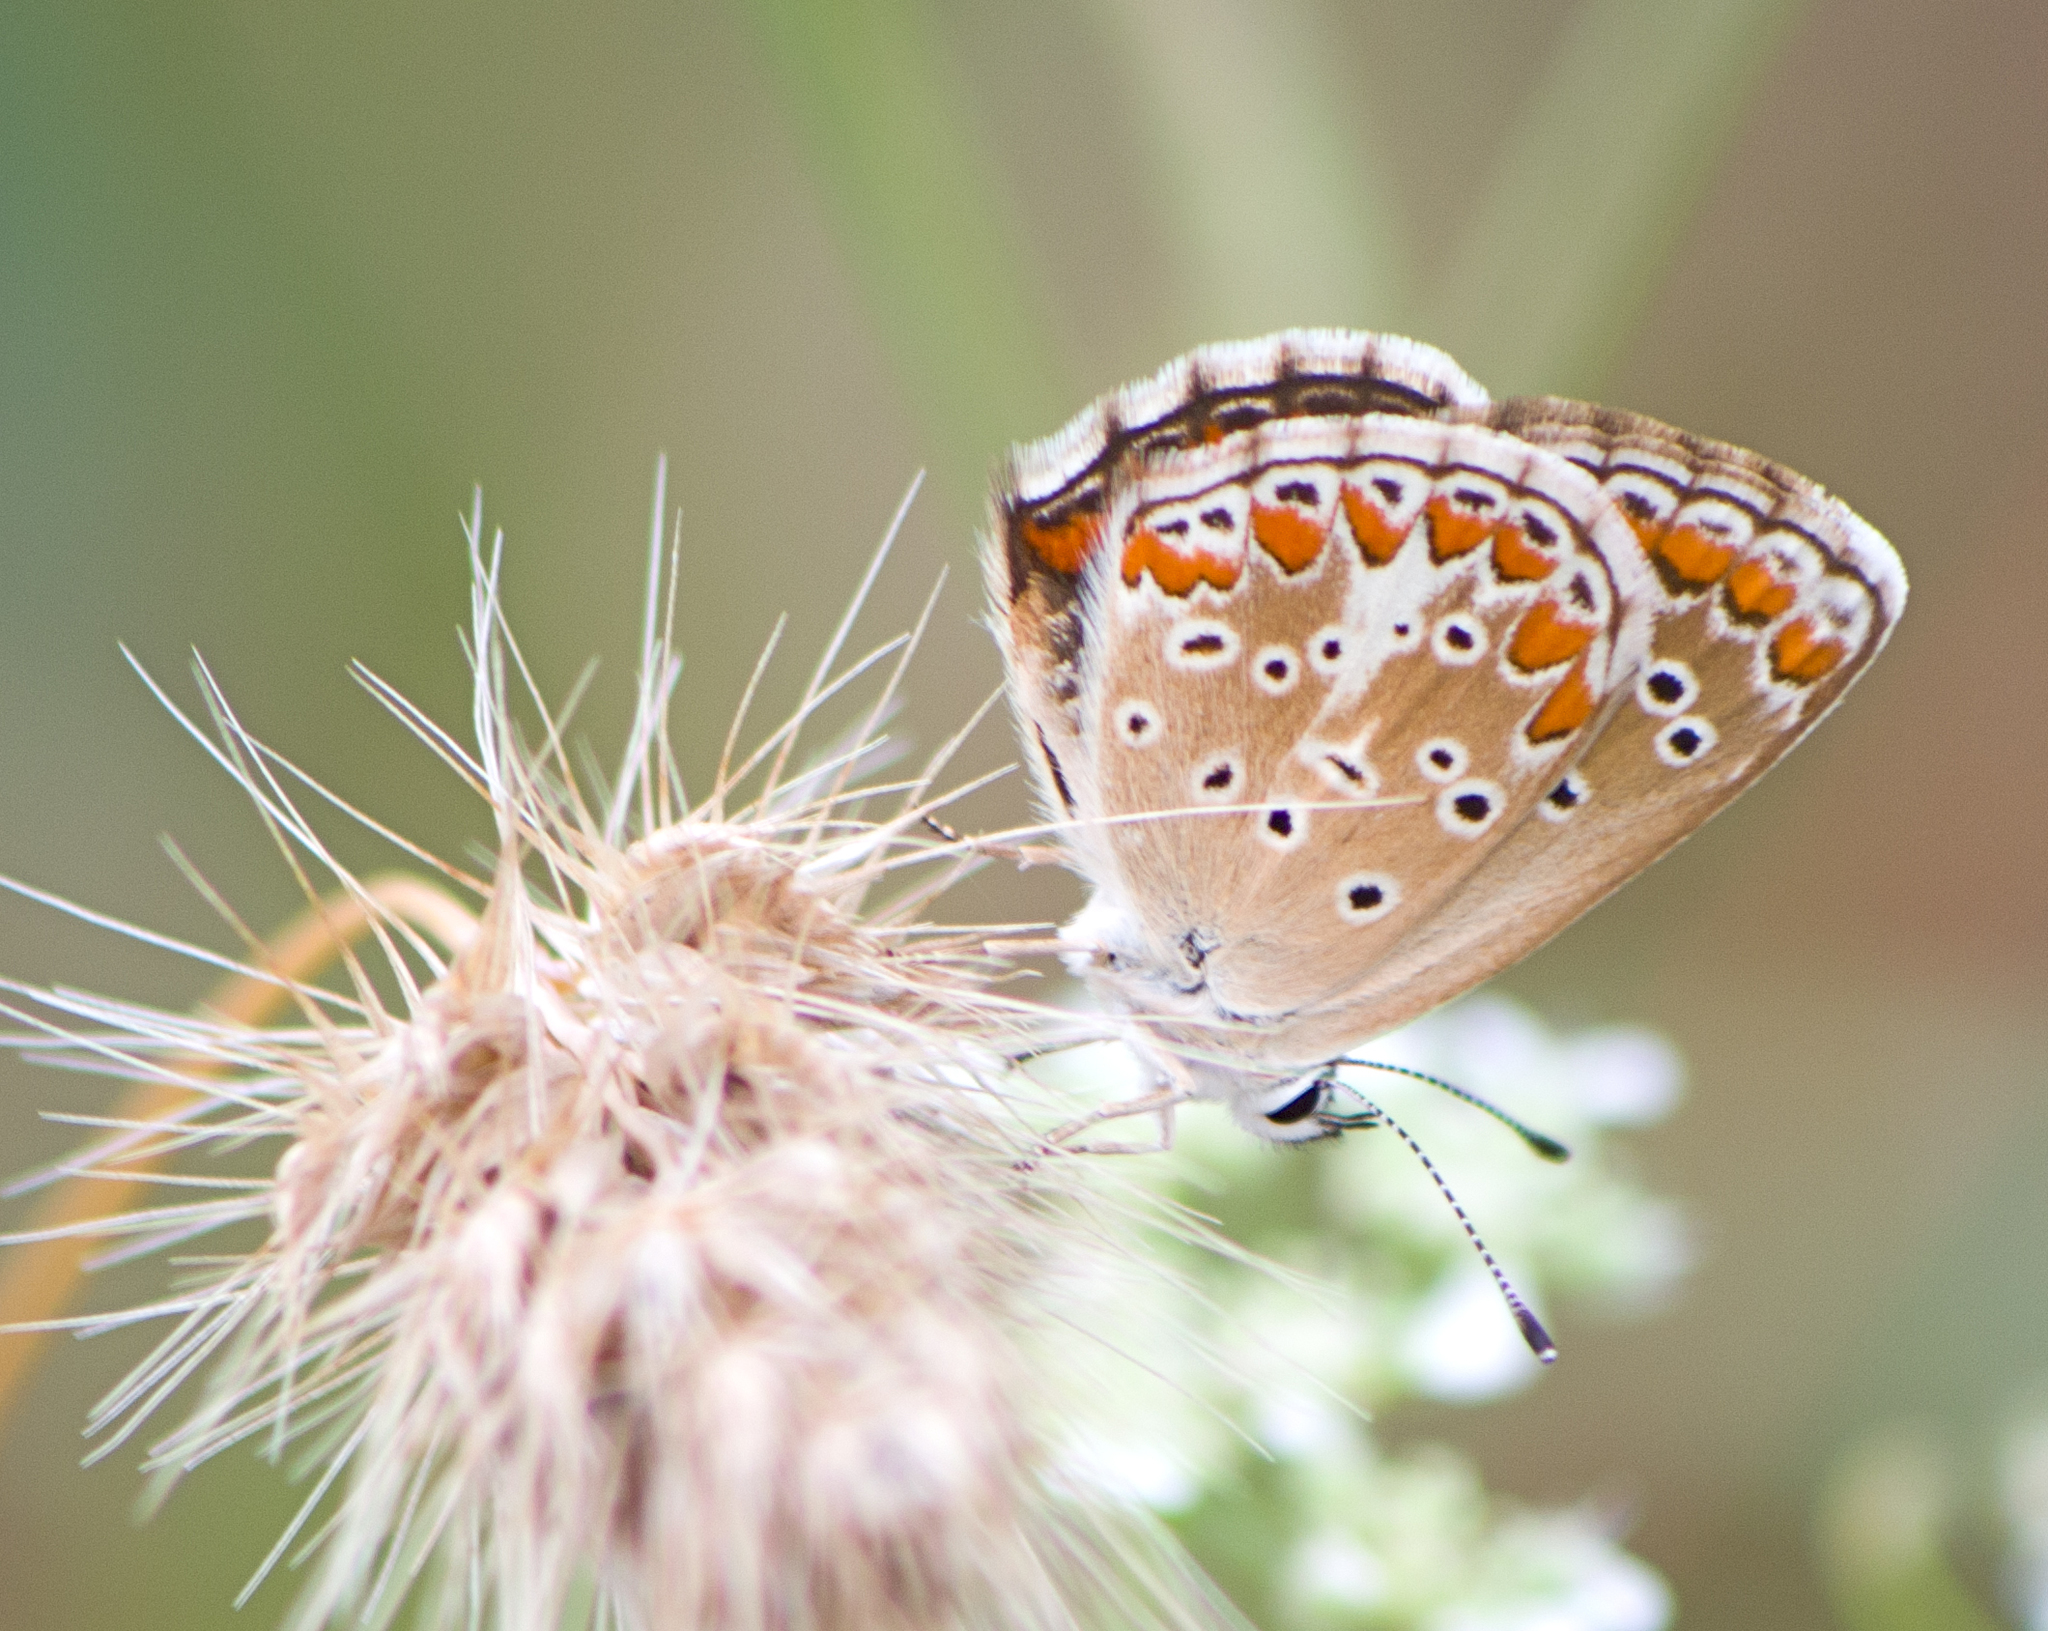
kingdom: Animalia
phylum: Arthropoda
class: Insecta
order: Lepidoptera
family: Lycaenidae
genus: Aricia
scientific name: Aricia agestis
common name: Brown argus
